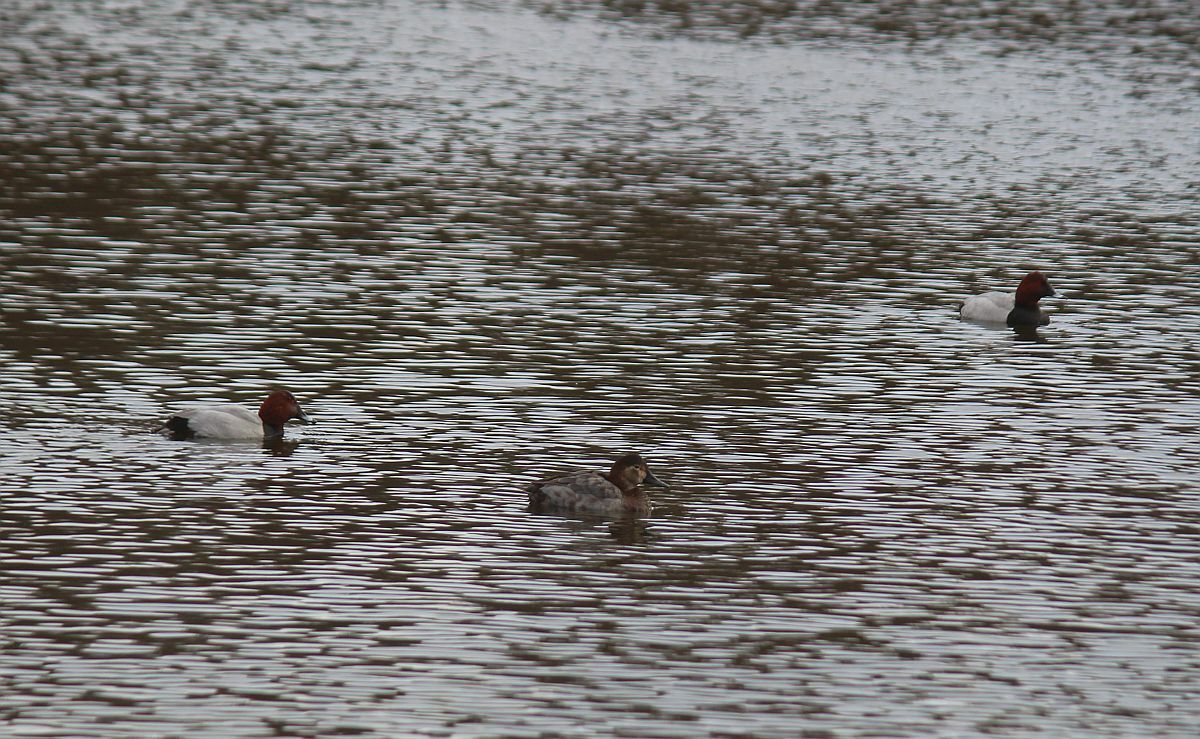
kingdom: Animalia
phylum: Chordata
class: Aves
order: Anseriformes
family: Anatidae
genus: Aythya
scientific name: Aythya ferina
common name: Common pochard
